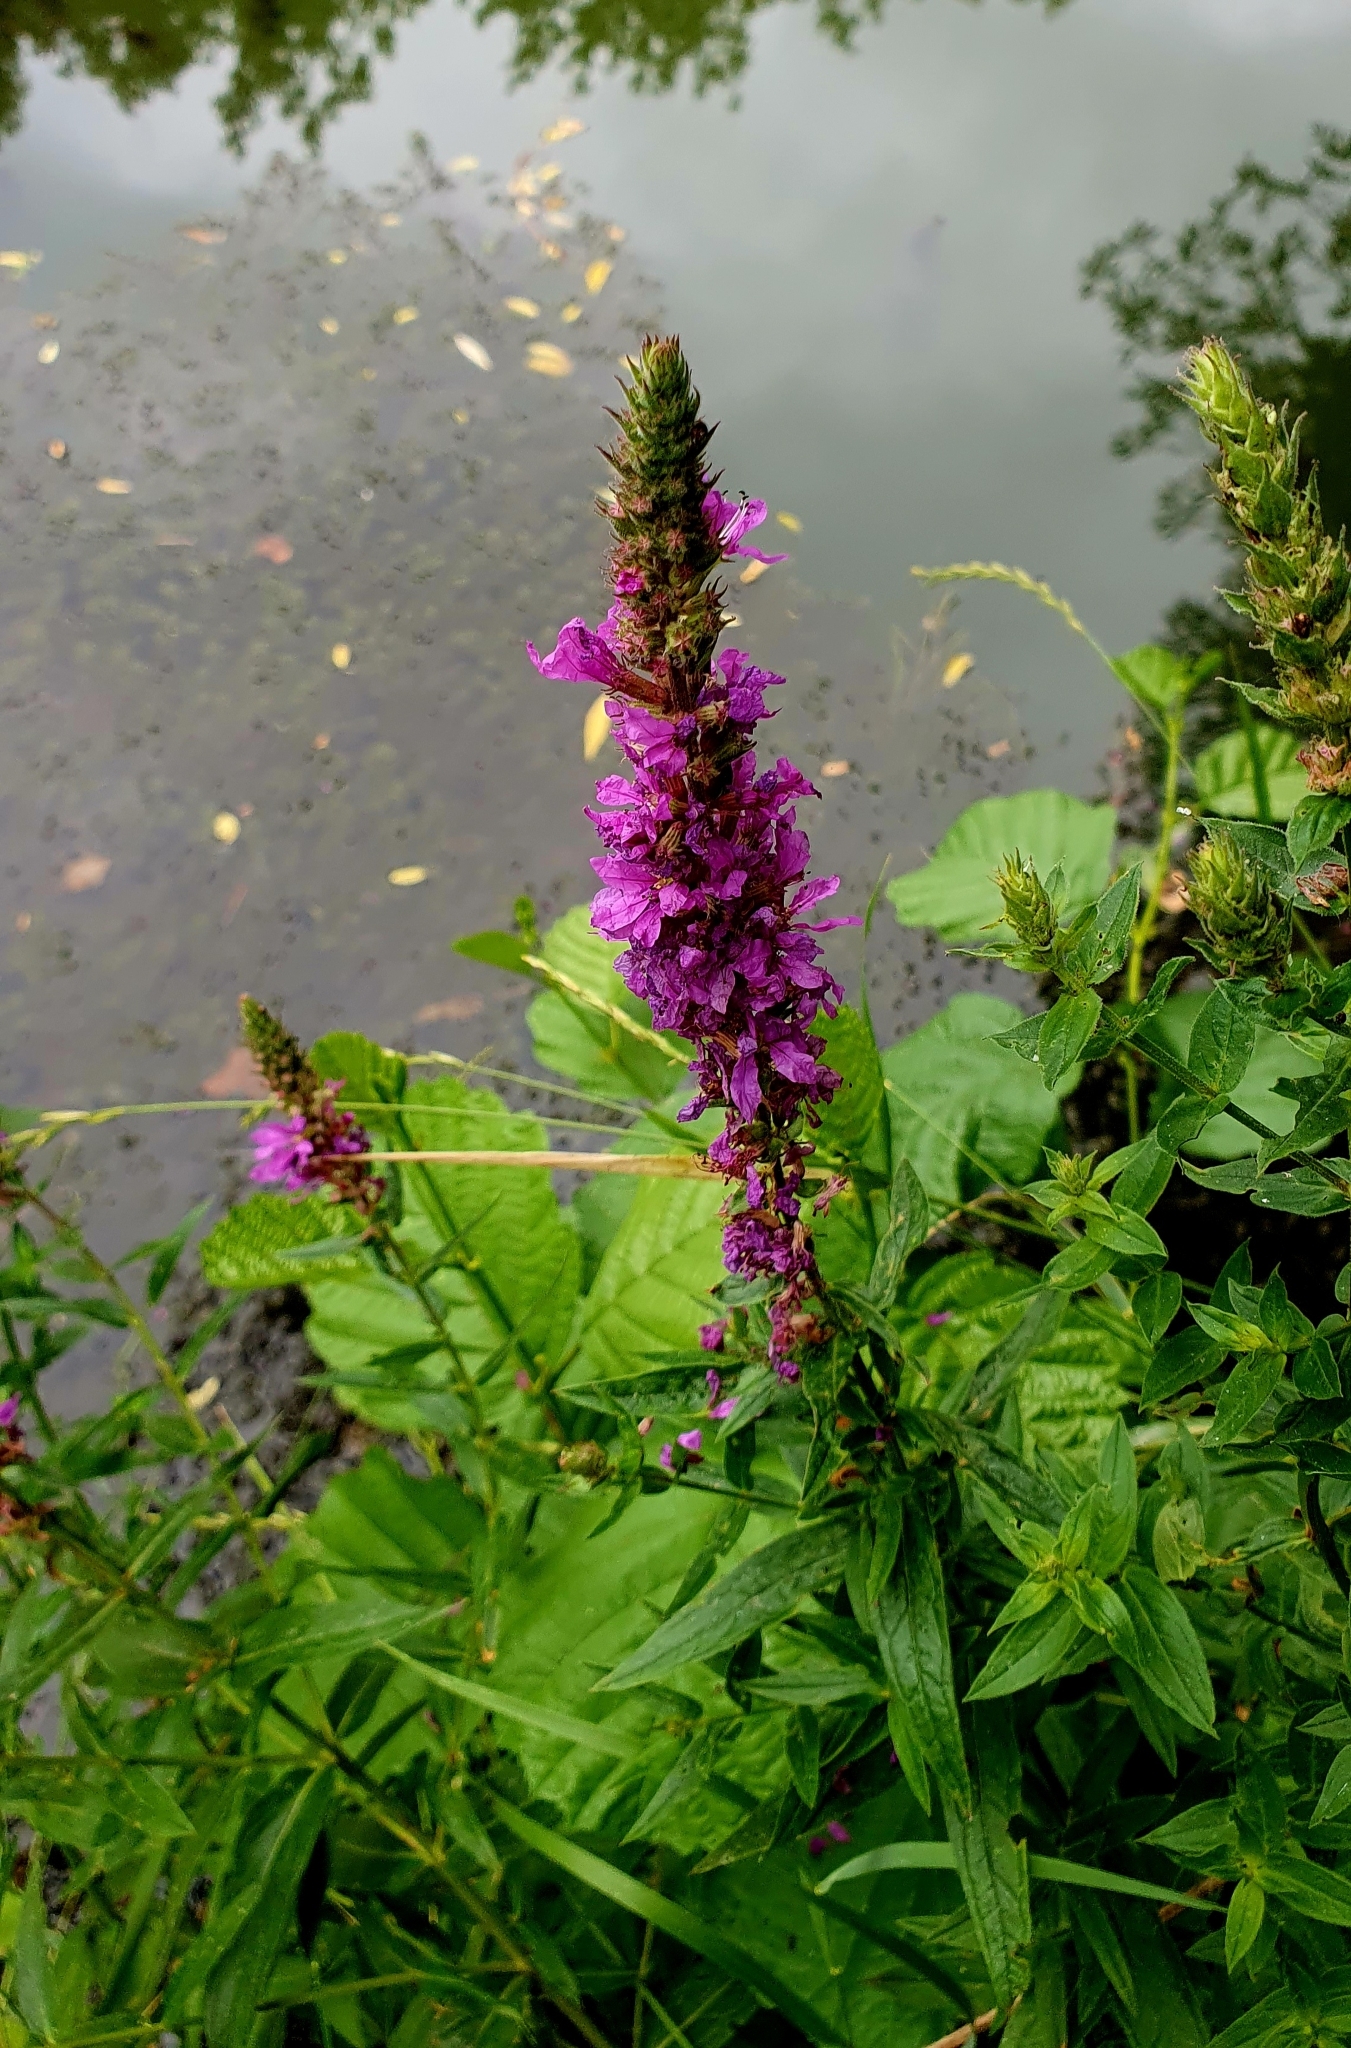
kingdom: Plantae
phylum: Tracheophyta
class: Magnoliopsida
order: Myrtales
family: Lythraceae
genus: Lythrum
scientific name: Lythrum salicaria
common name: Purple loosestrife
